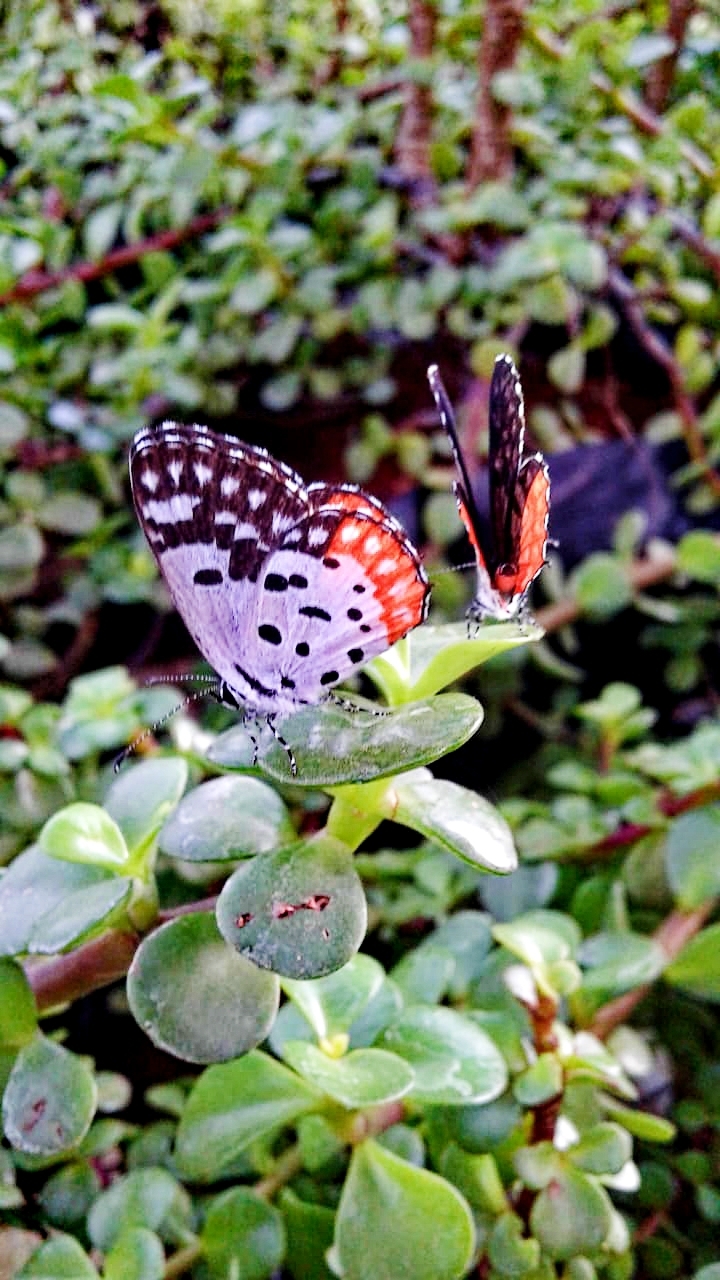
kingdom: Animalia
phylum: Arthropoda
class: Insecta
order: Lepidoptera
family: Lycaenidae
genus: Talicada
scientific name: Talicada nyseus
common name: Red pierrot
